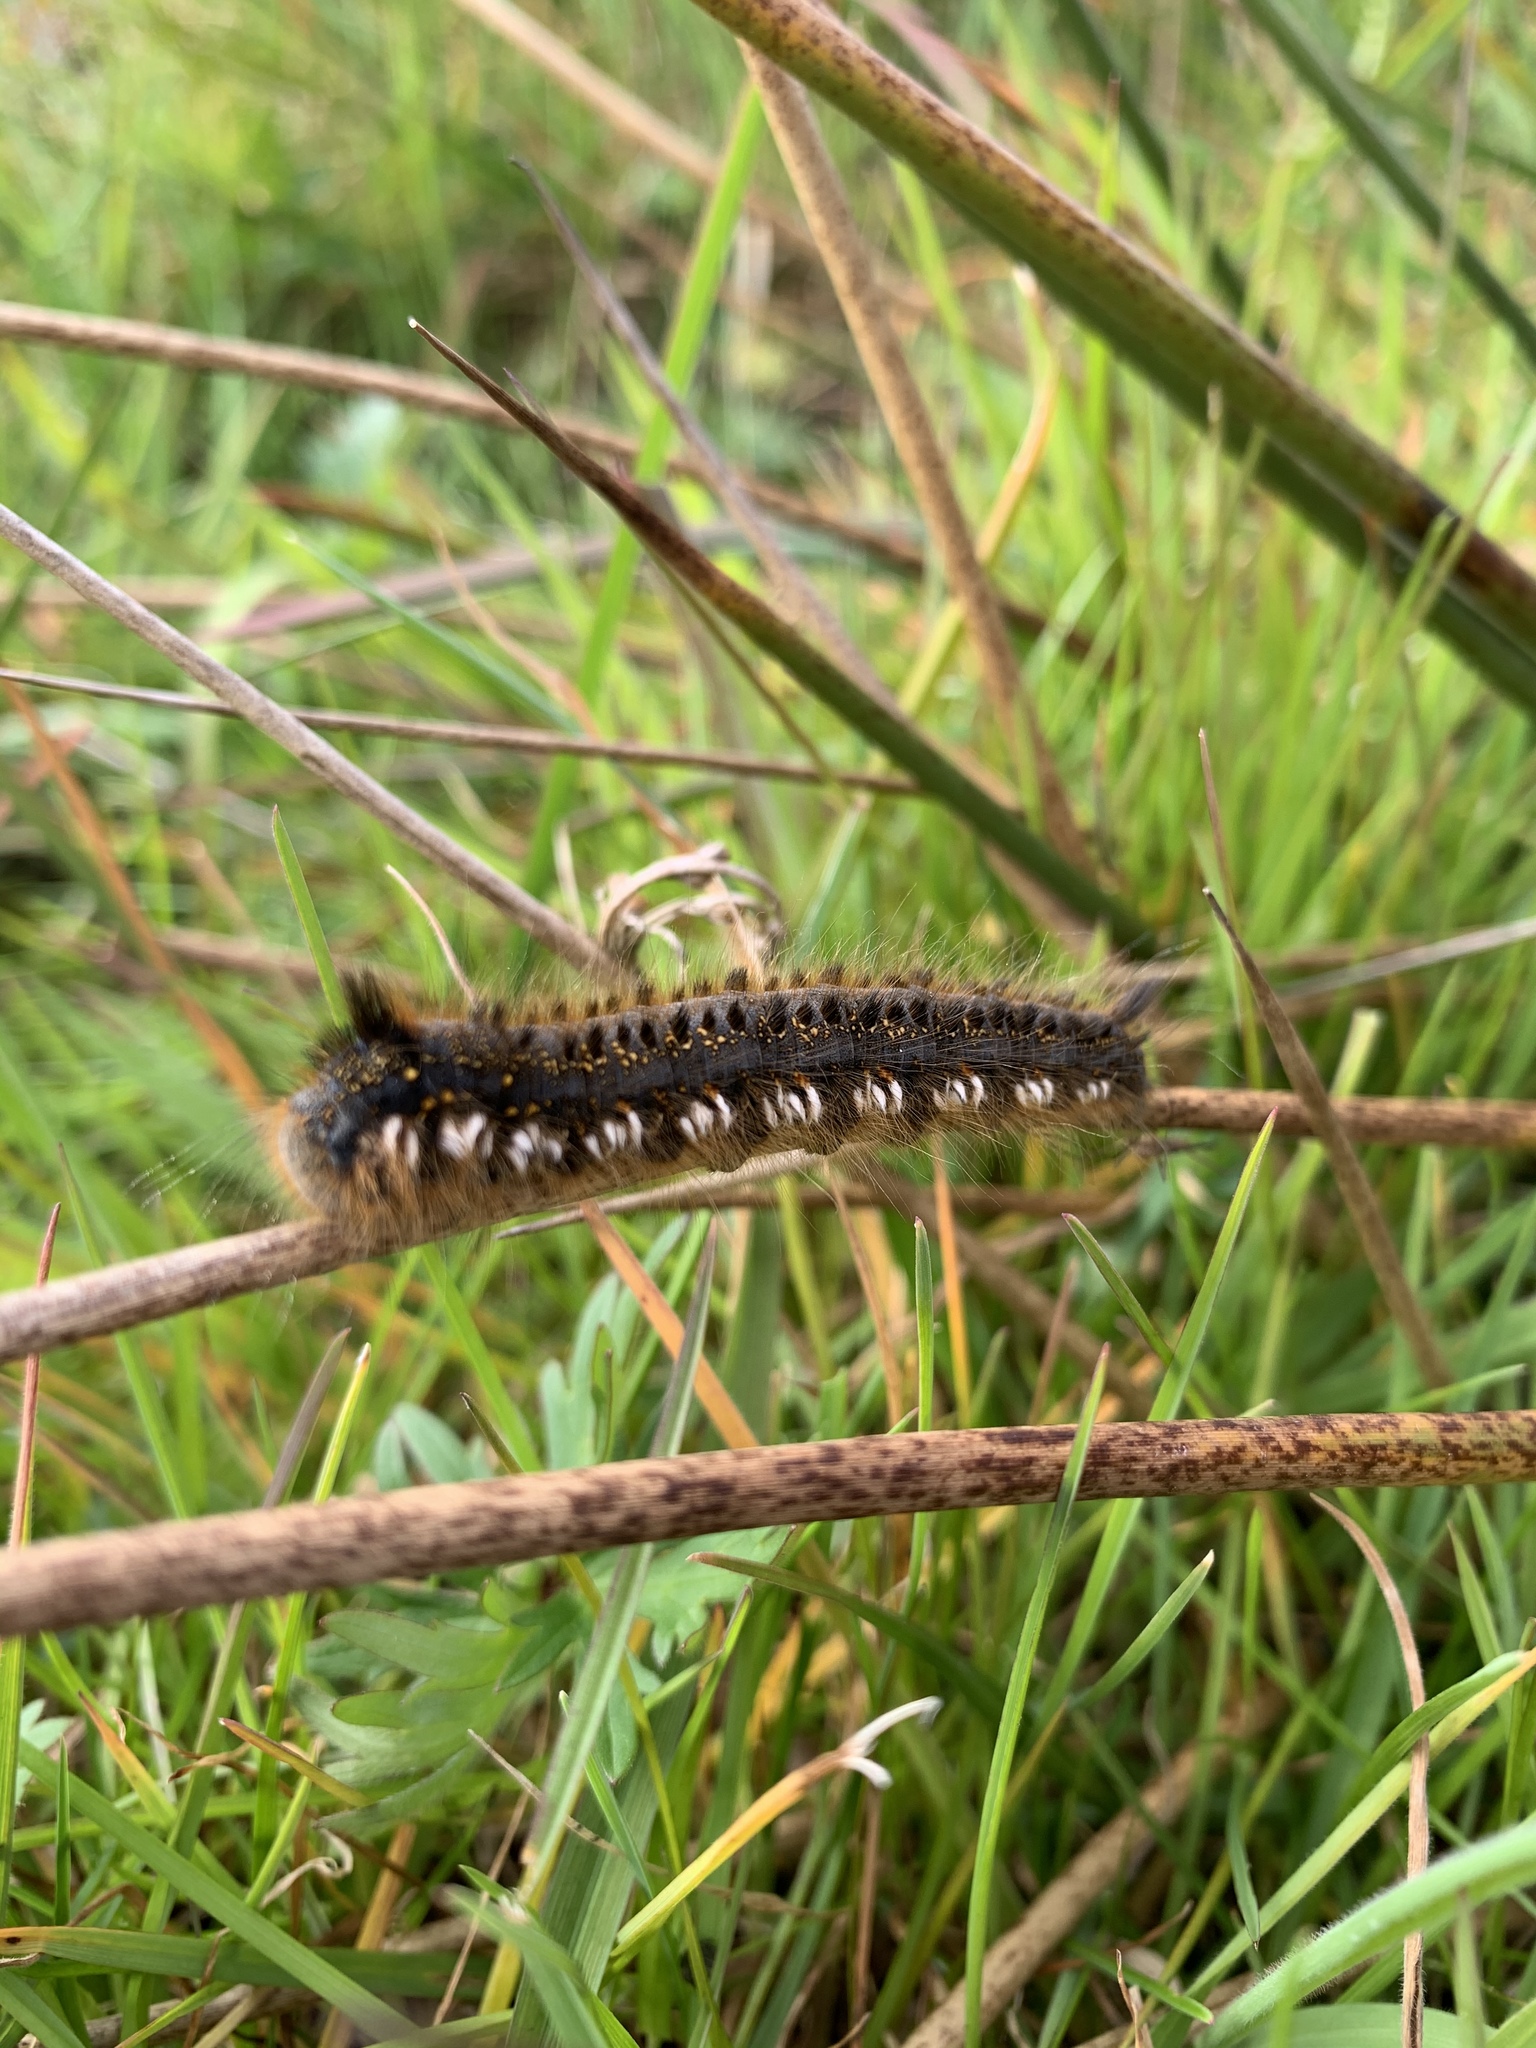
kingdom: Animalia
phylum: Arthropoda
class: Insecta
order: Lepidoptera
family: Lasiocampidae
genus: Euthrix
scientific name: Euthrix potatoria
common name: Drinker
